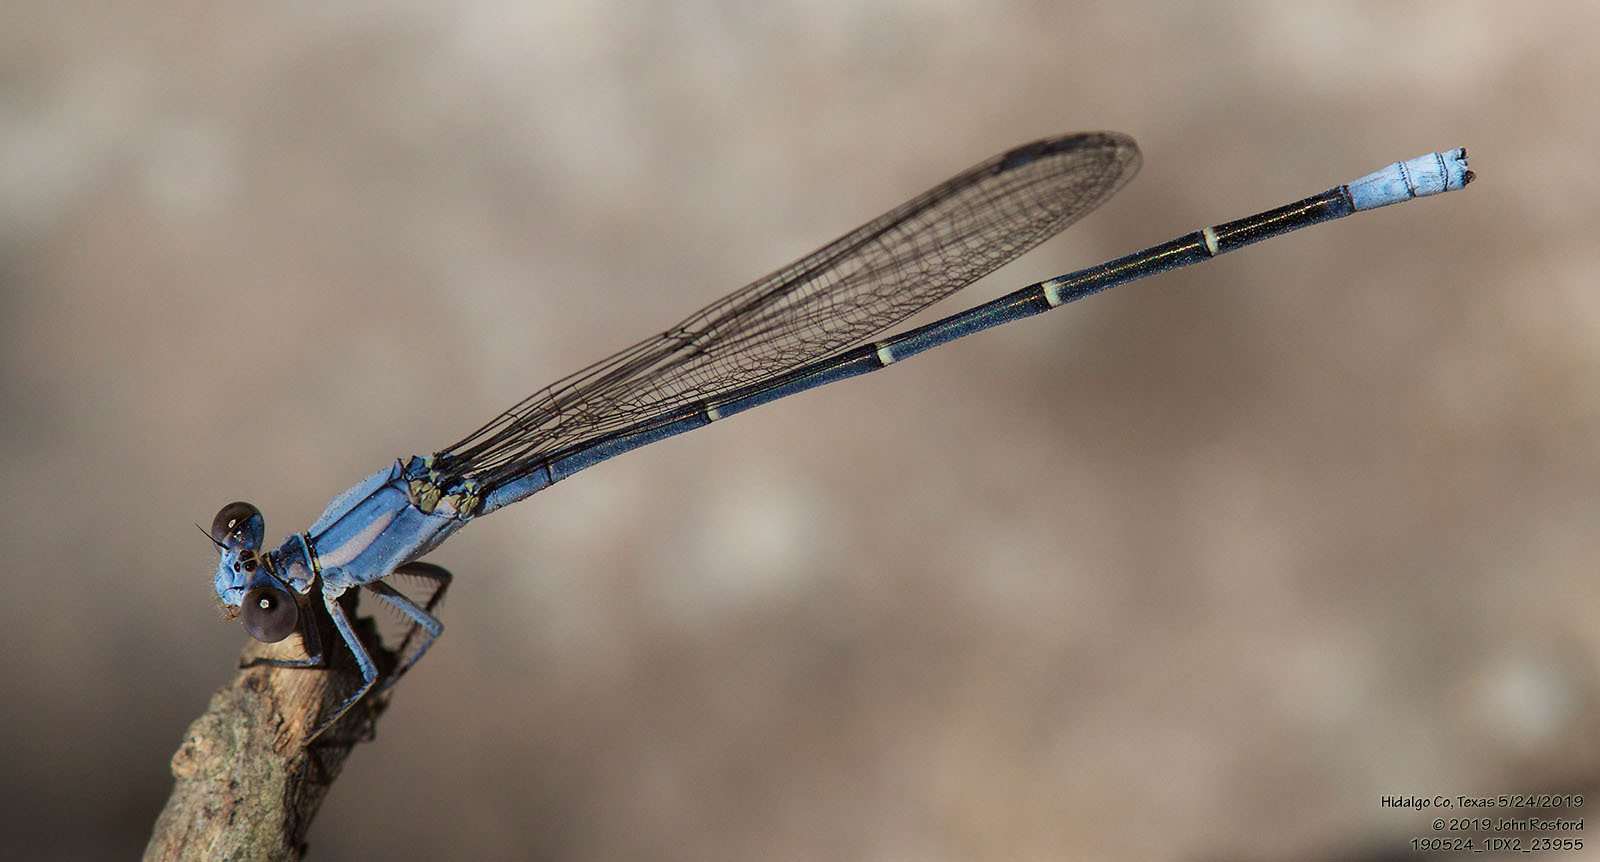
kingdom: Animalia
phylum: Arthropoda
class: Insecta
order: Odonata
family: Coenagrionidae
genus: Argia
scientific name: Argia moesta
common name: Powdered dancer
